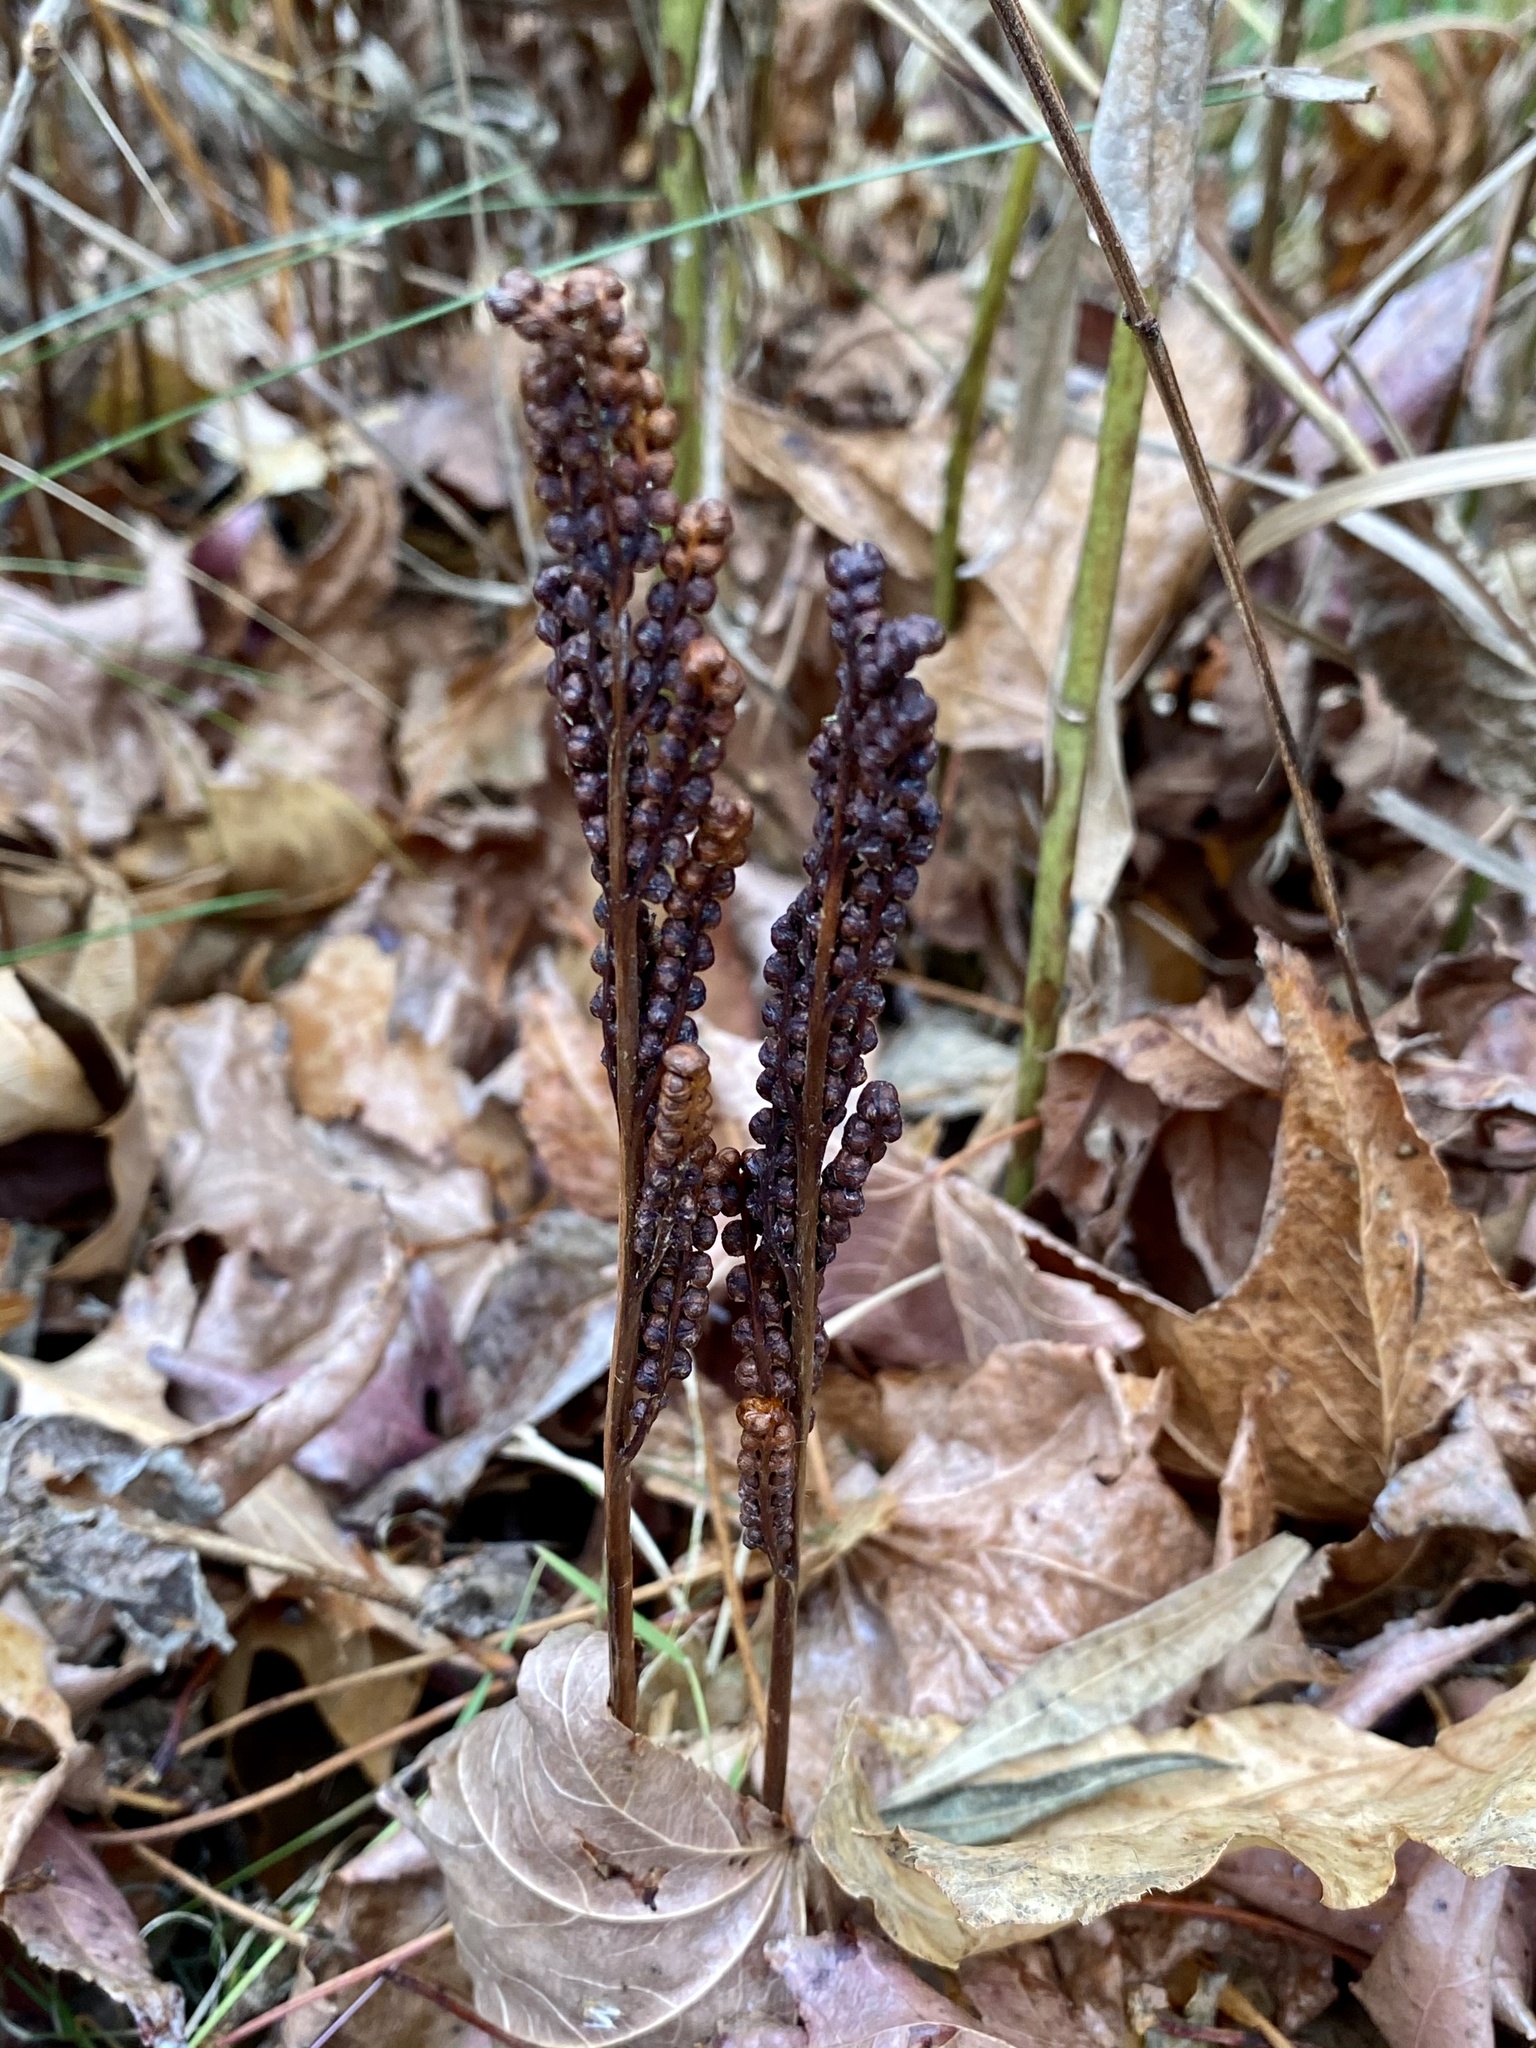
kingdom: Plantae
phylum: Tracheophyta
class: Polypodiopsida
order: Polypodiales
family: Onocleaceae
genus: Onoclea
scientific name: Onoclea sensibilis
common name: Sensitive fern
